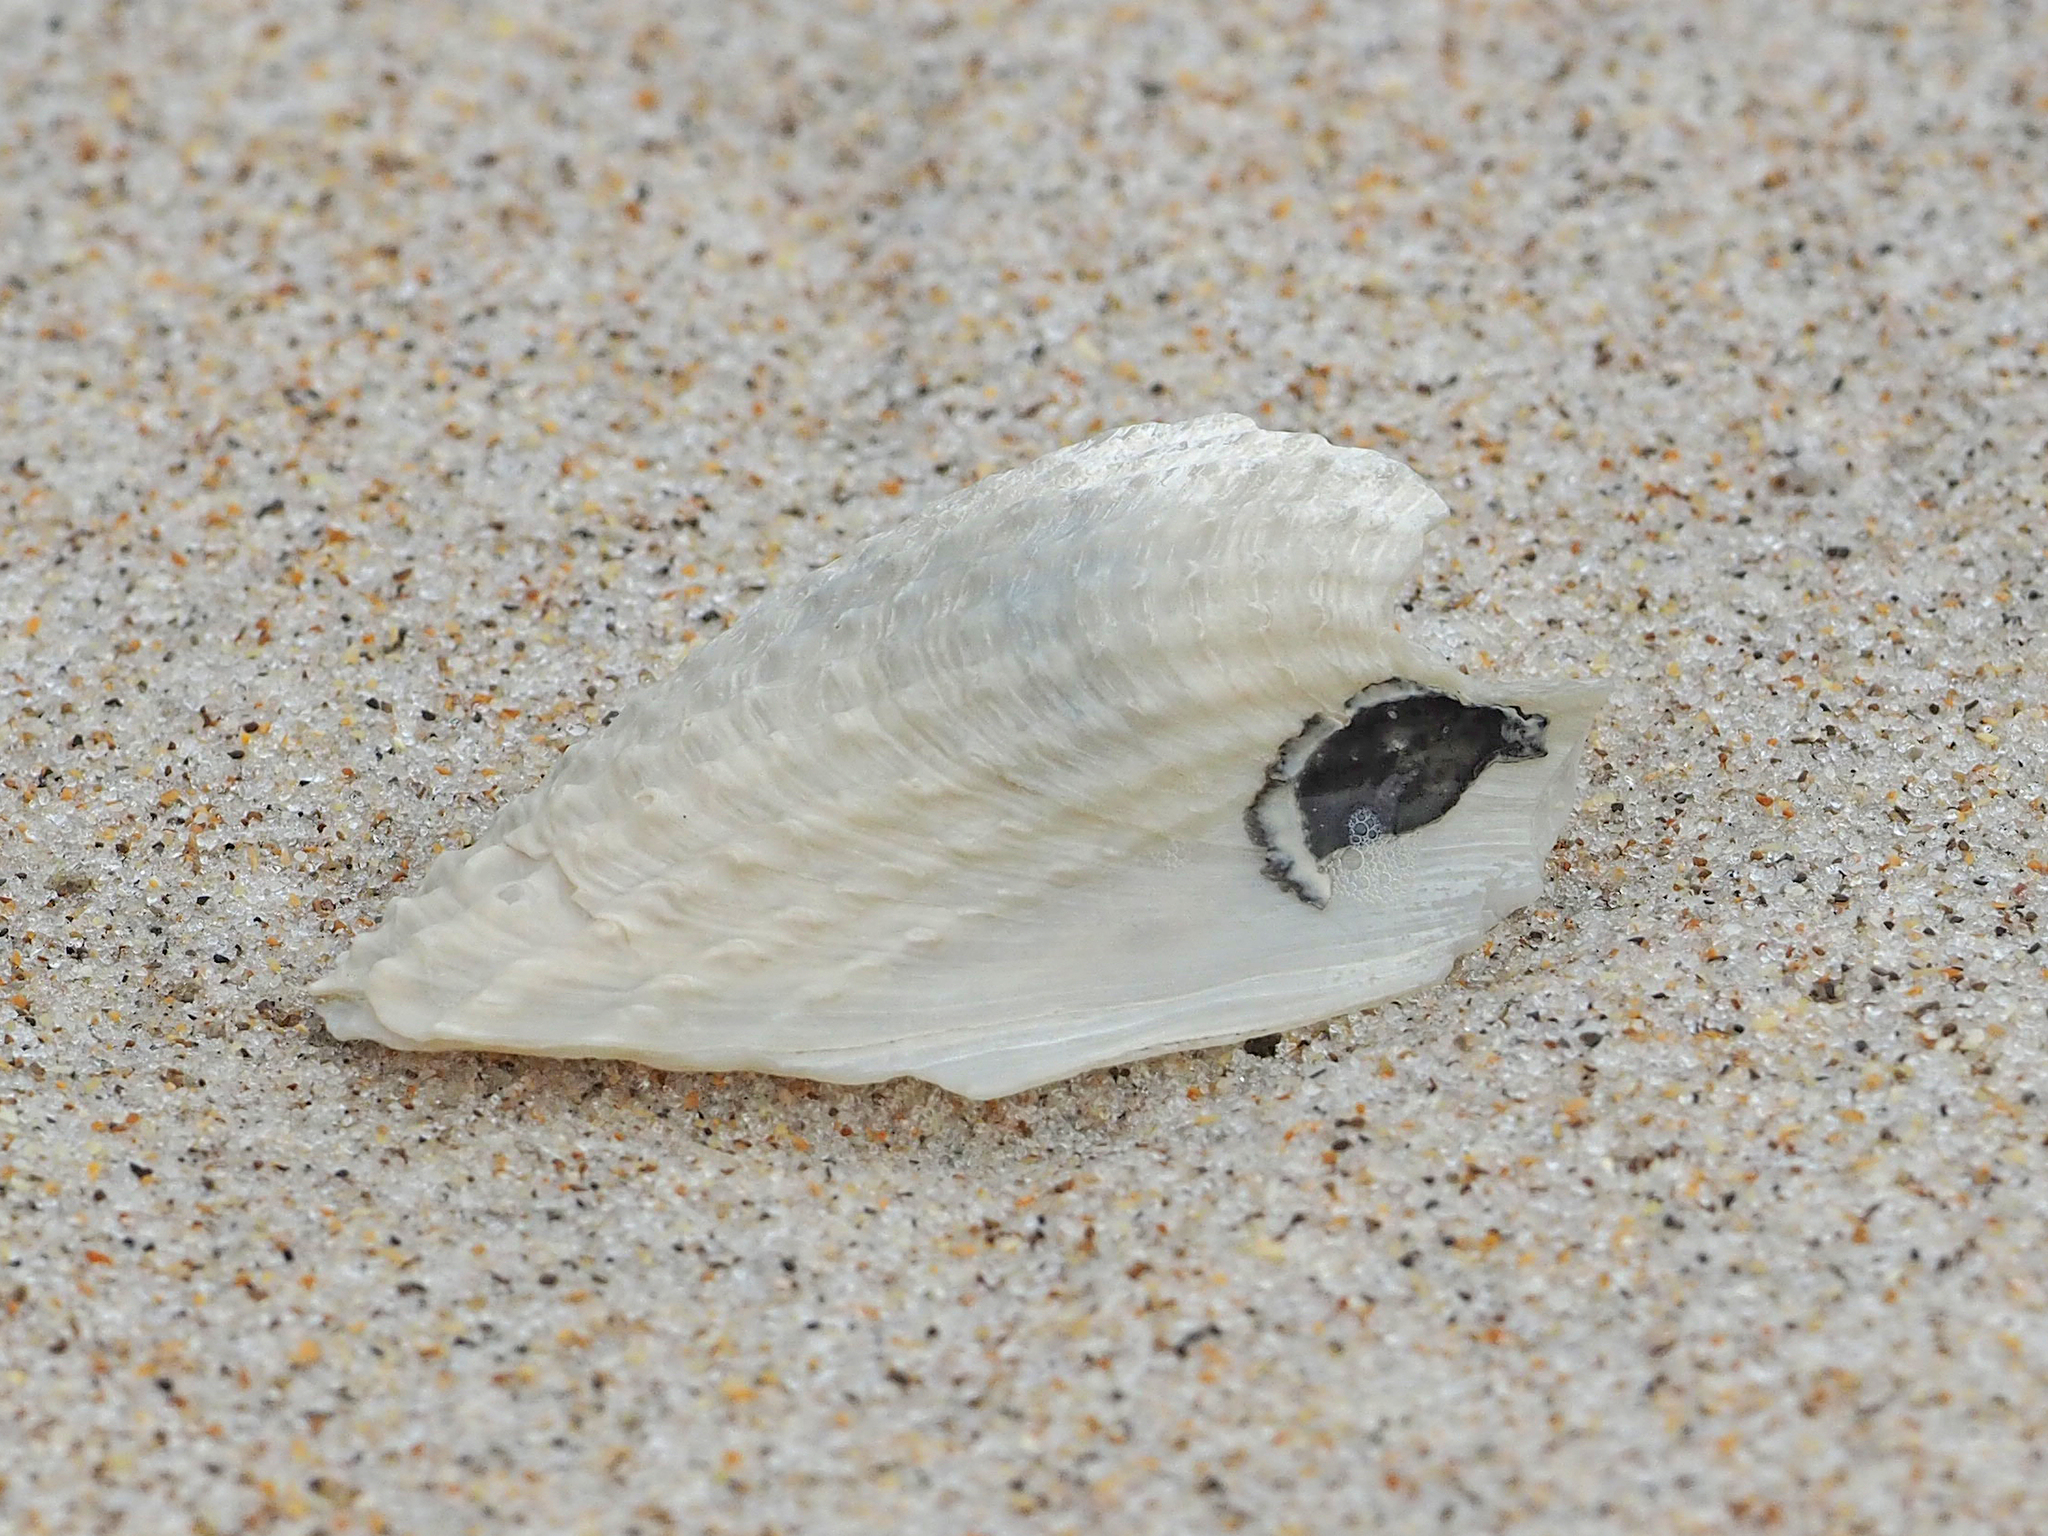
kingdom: Animalia
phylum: Mollusca
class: Bivalvia
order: Myida
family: Pholadidae
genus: Cyrtopleura
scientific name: Cyrtopleura costata
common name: Angel wing
